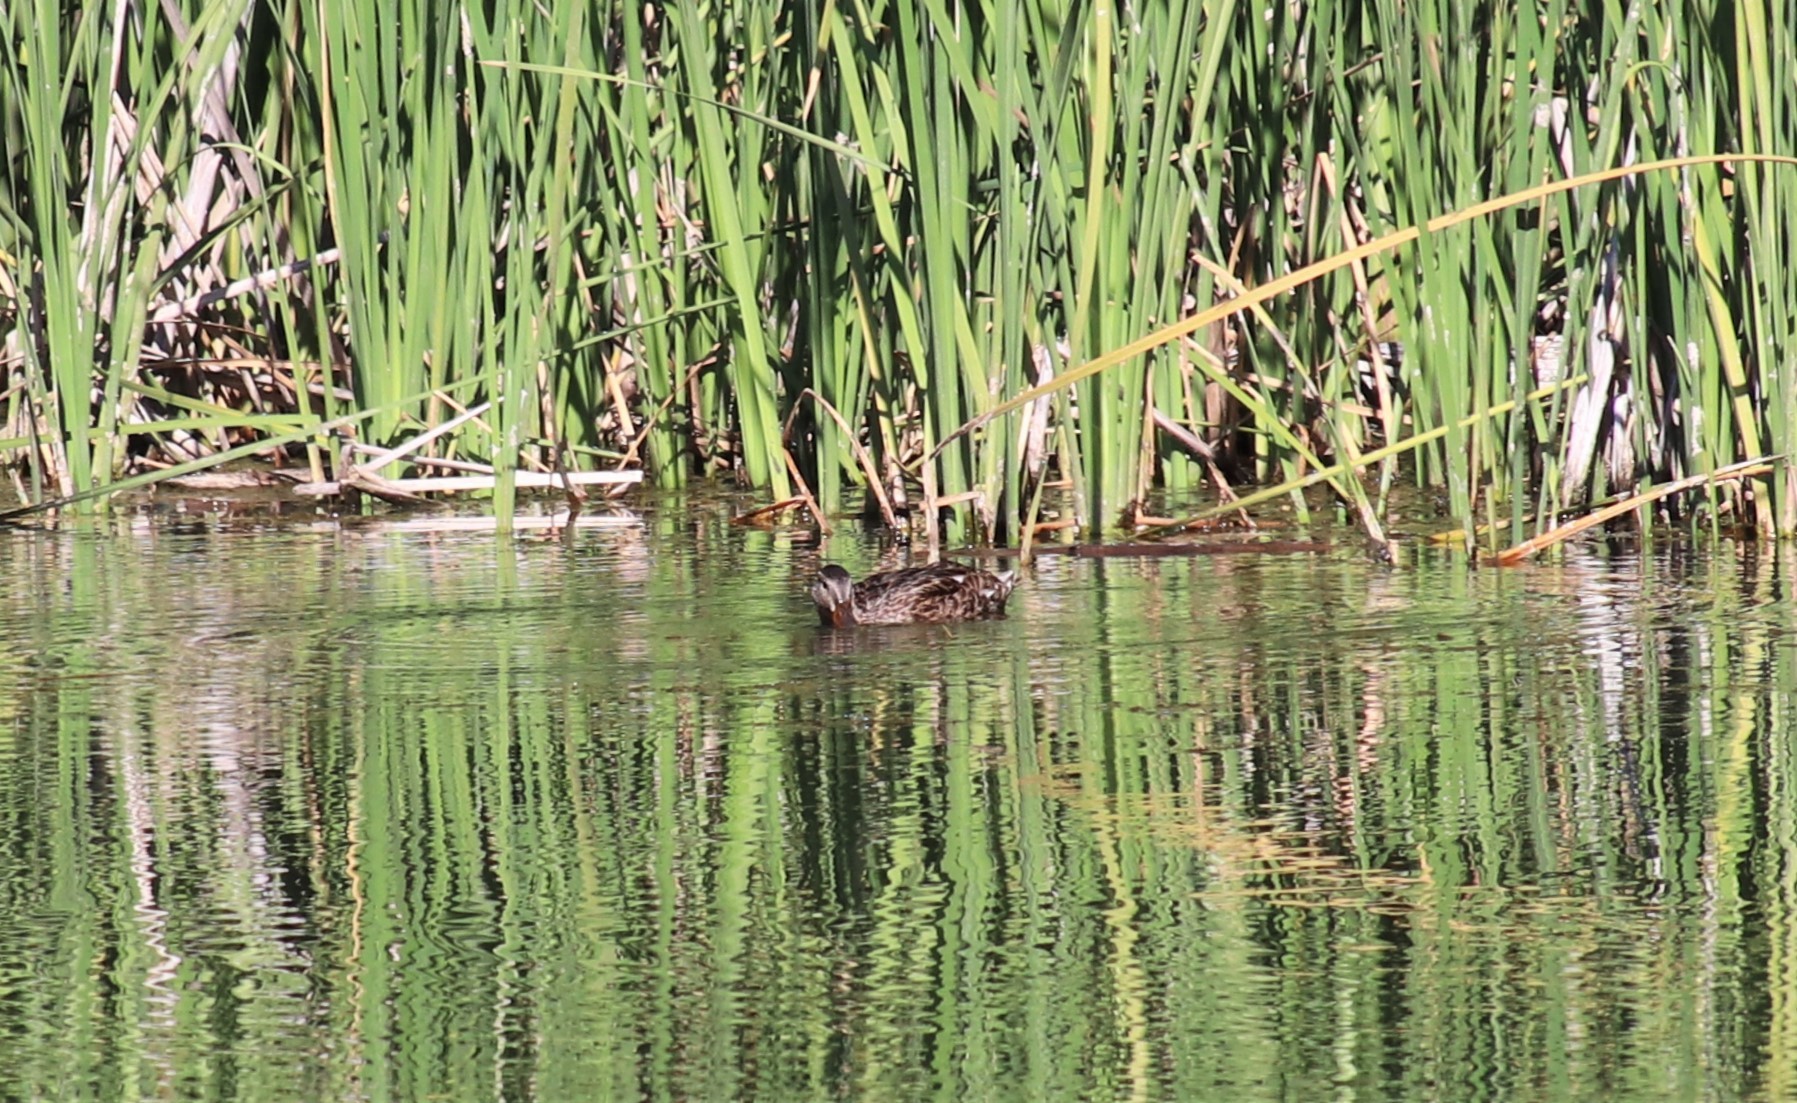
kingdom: Animalia
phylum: Chordata
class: Aves
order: Anseriformes
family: Anatidae
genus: Anas
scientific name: Anas platyrhynchos
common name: Mallard
